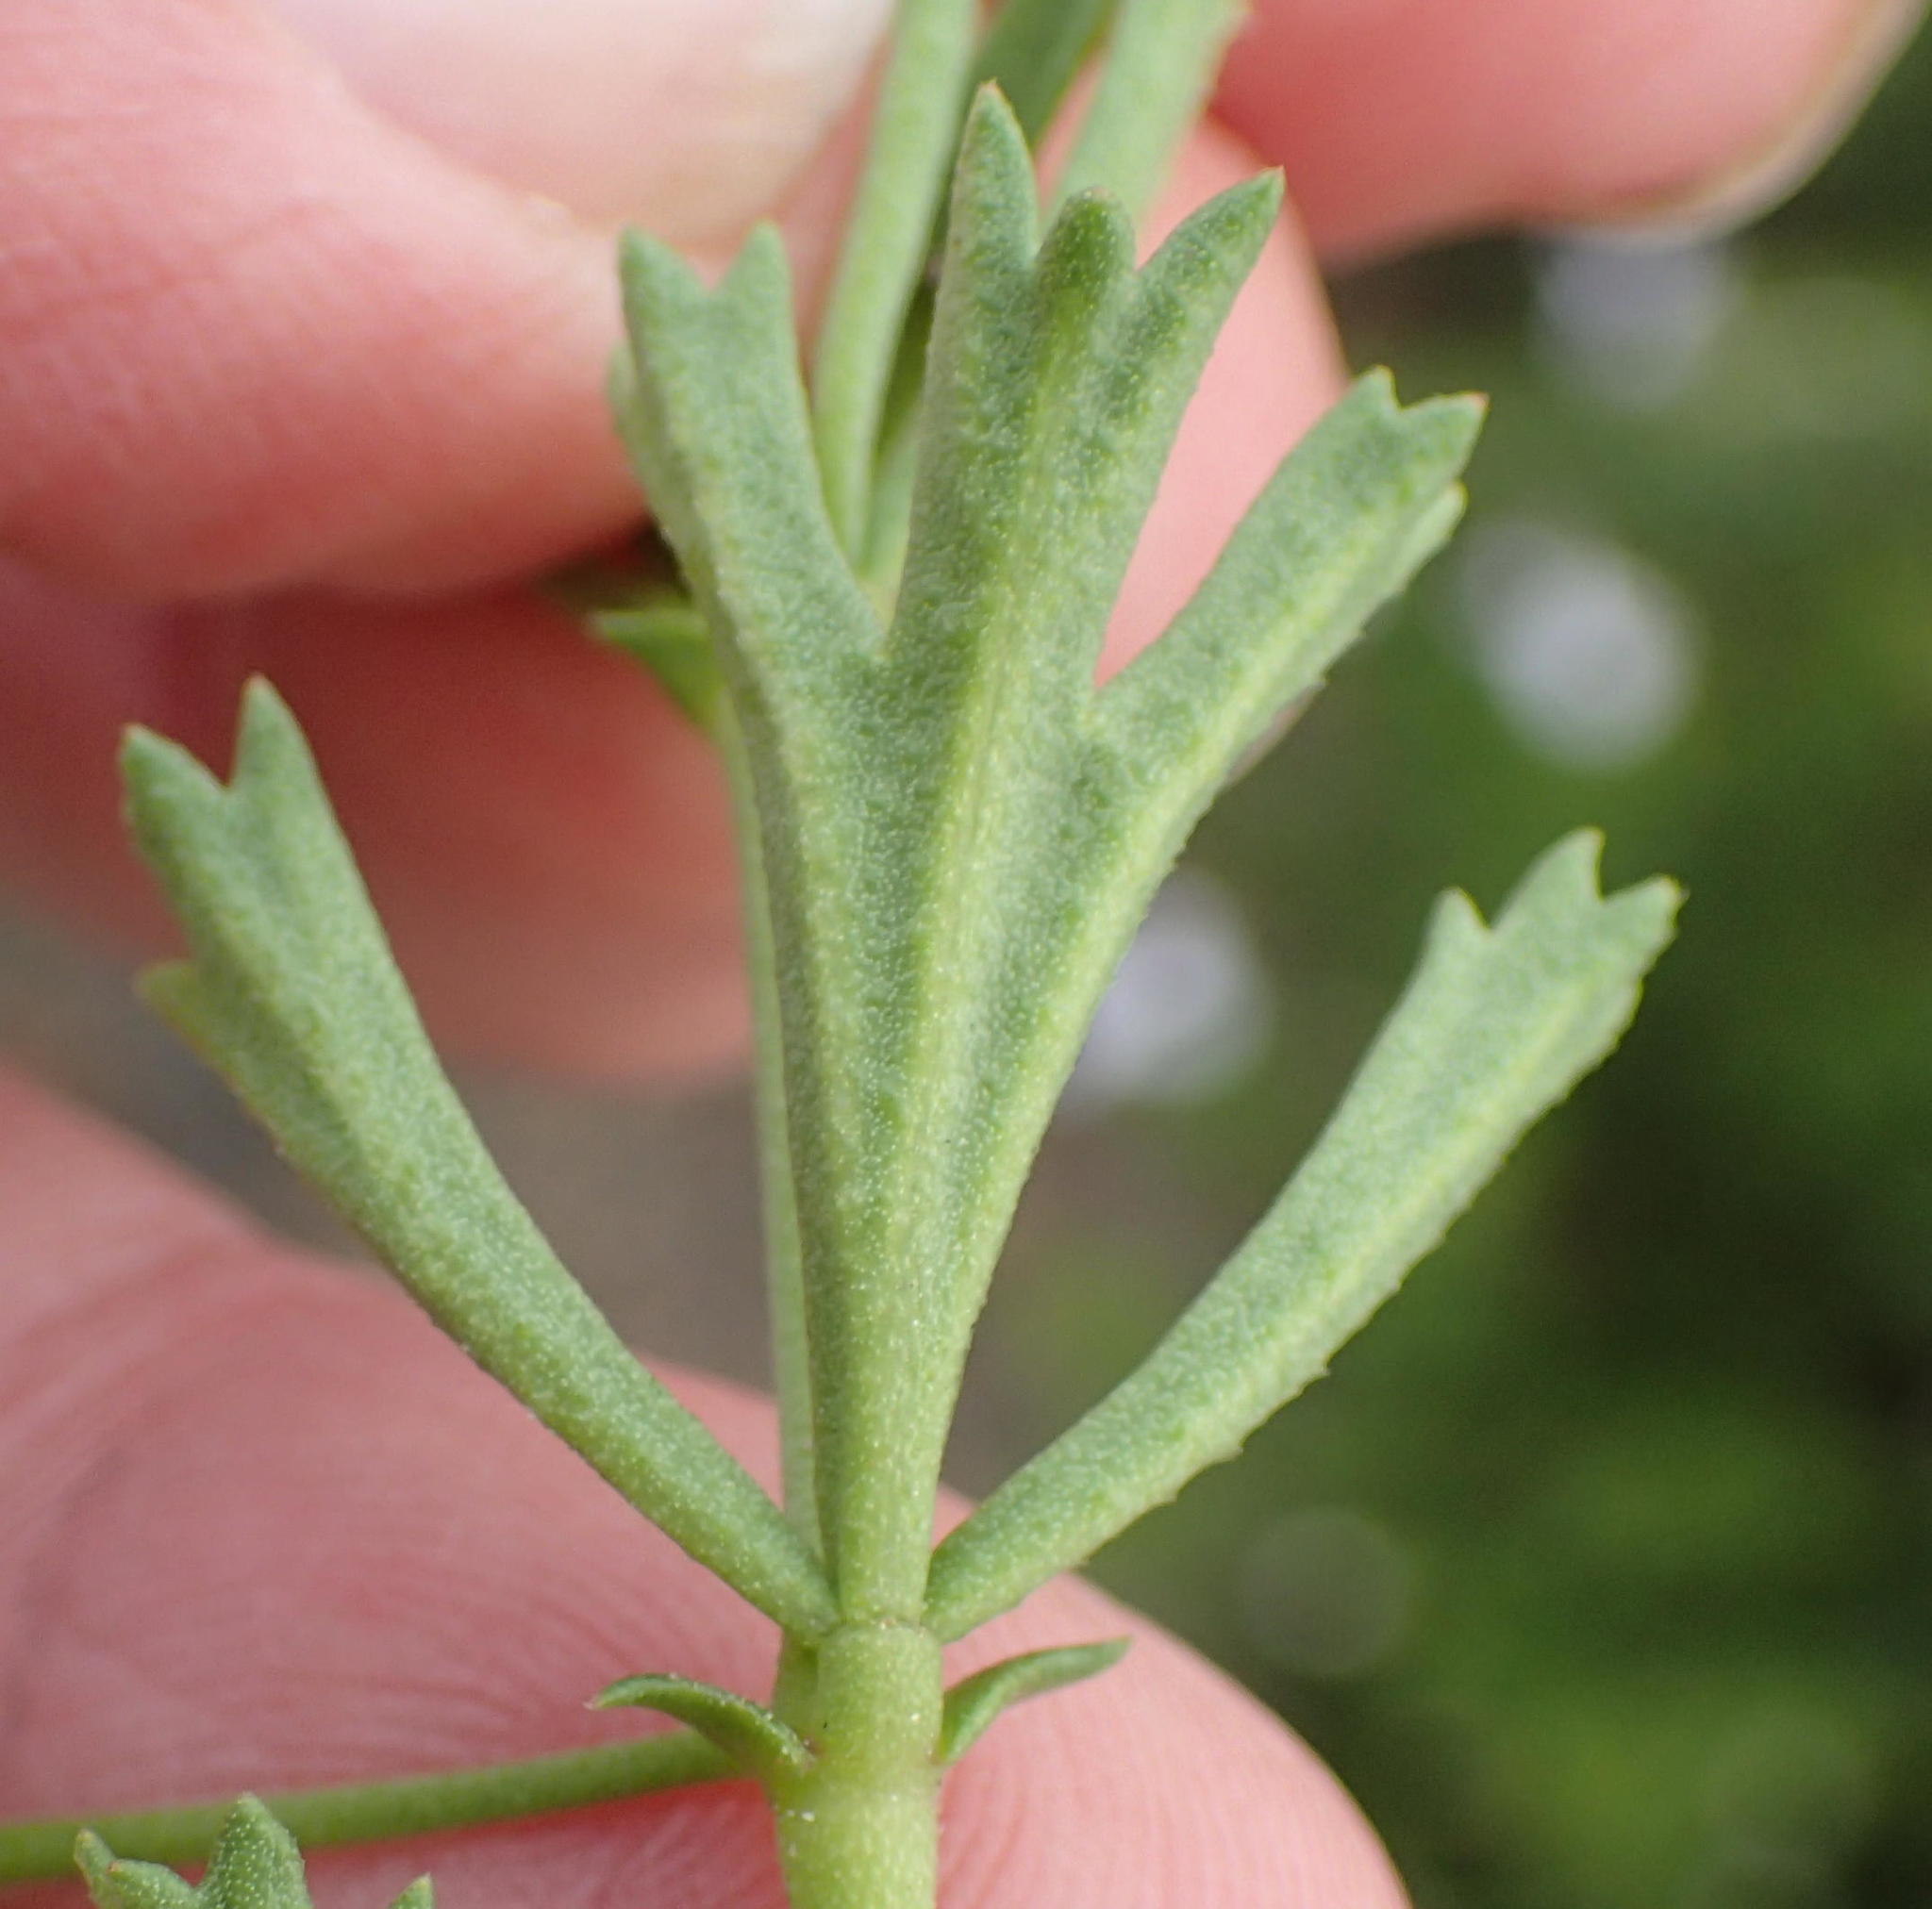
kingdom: Plantae
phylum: Tracheophyta
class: Magnoliopsida
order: Geraniales
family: Geraniaceae
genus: Pelargonium
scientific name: Pelargonium ternatum
